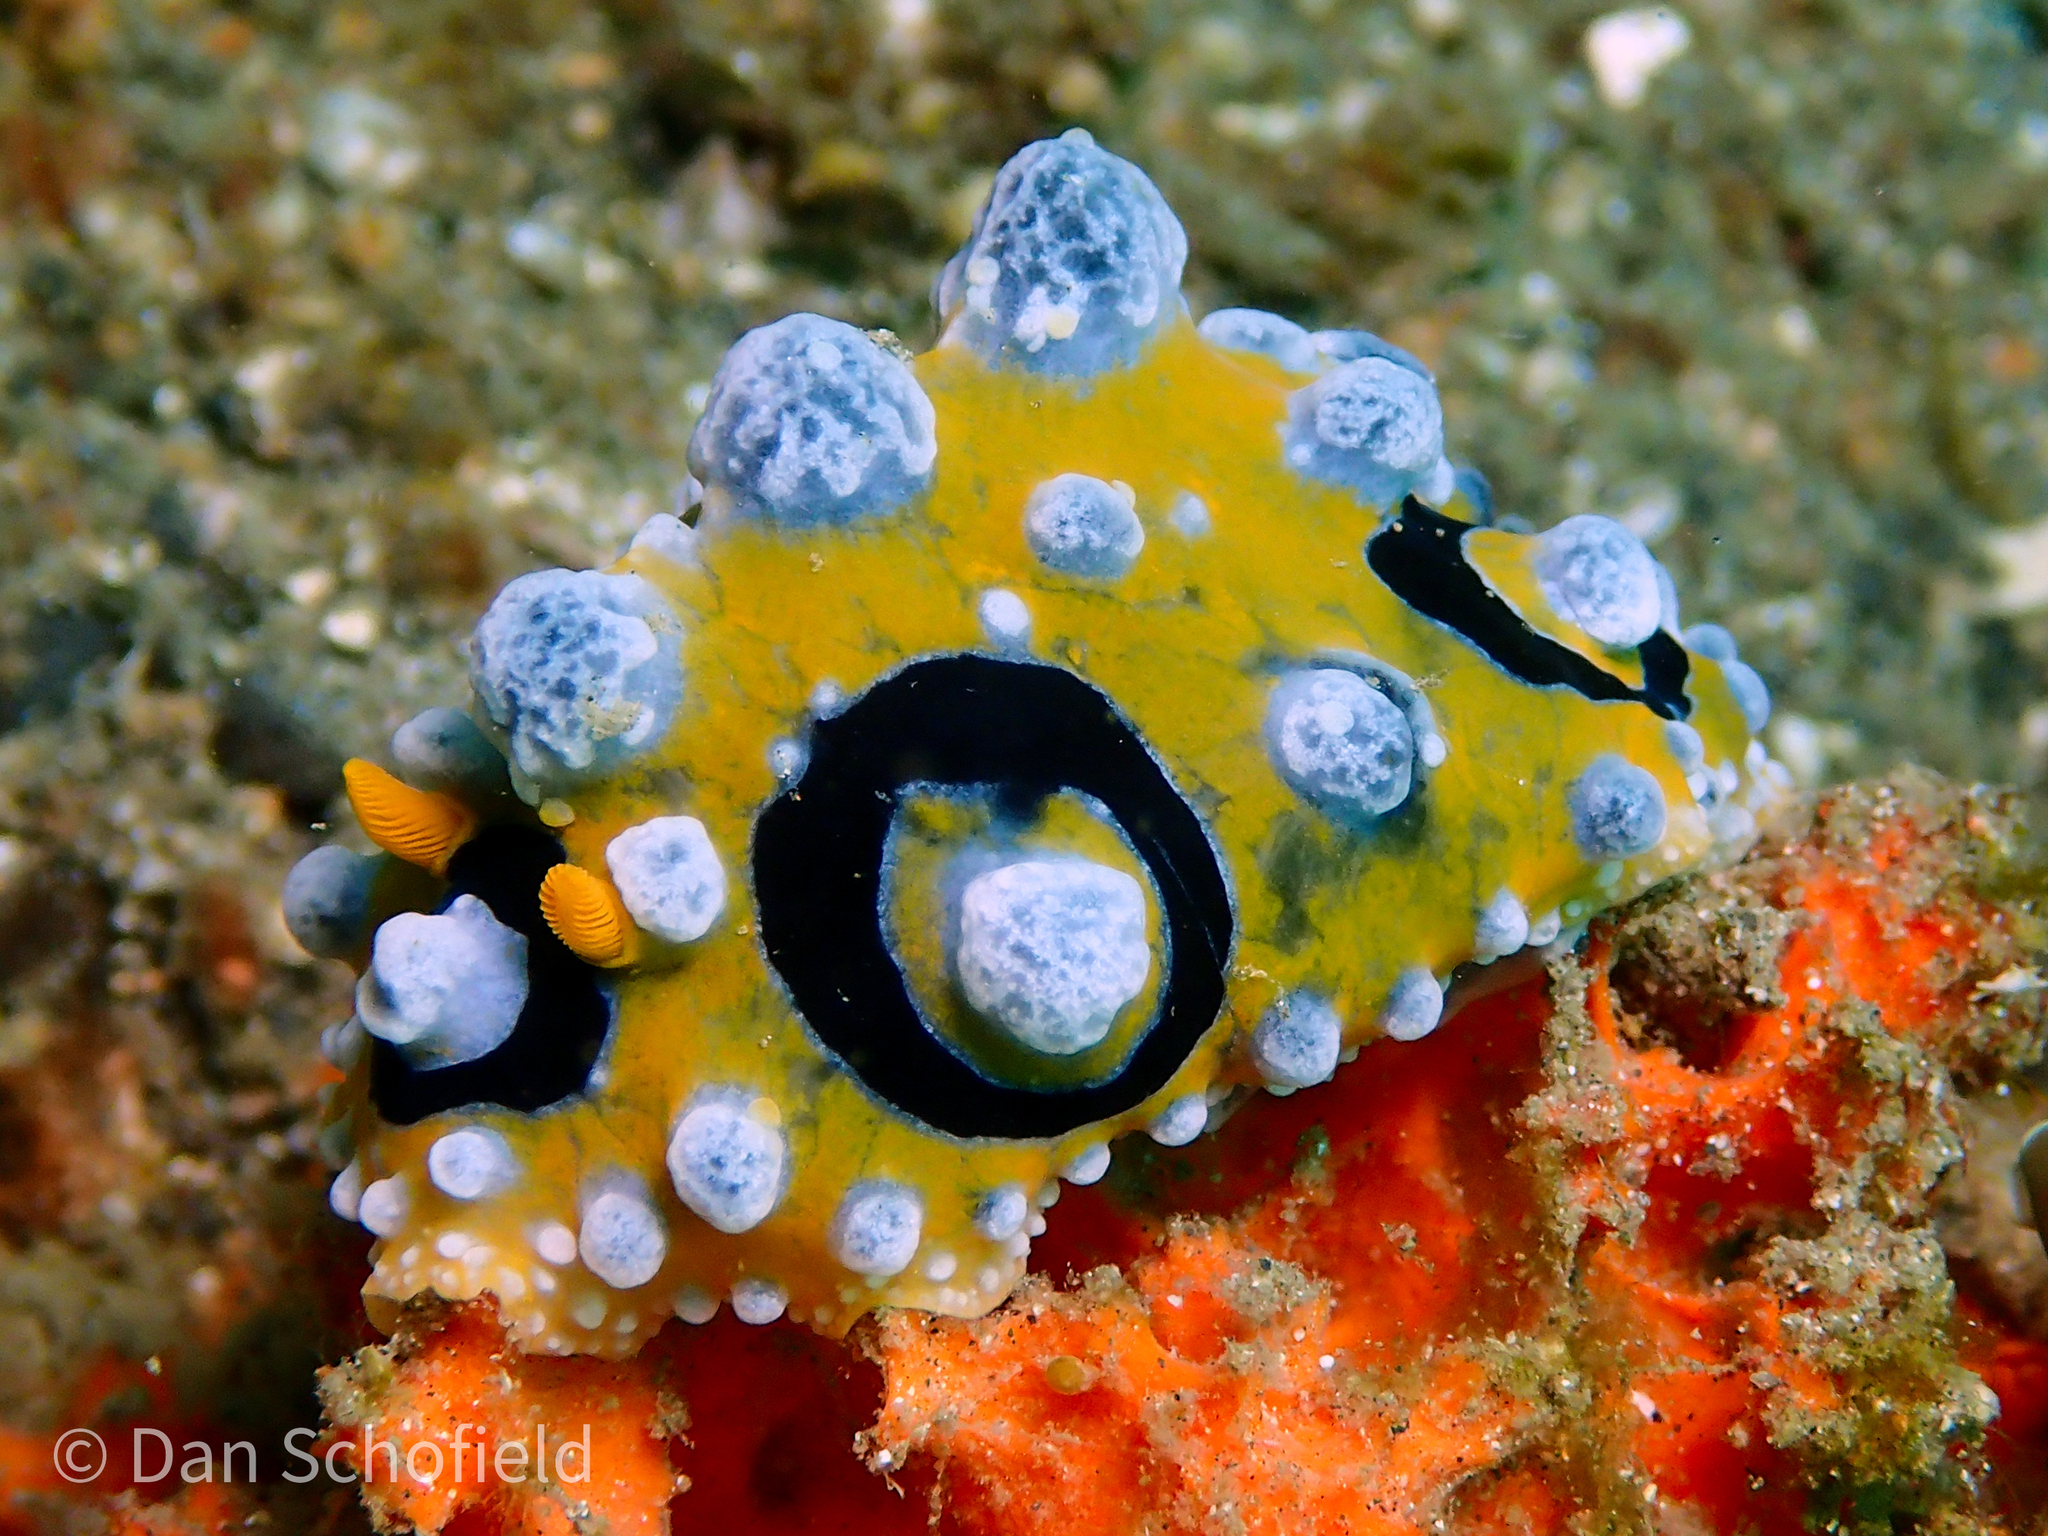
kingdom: Animalia
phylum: Mollusca
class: Gastropoda
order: Nudibranchia
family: Phyllidiidae
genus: Phyllidia
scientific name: Phyllidia ocellata
